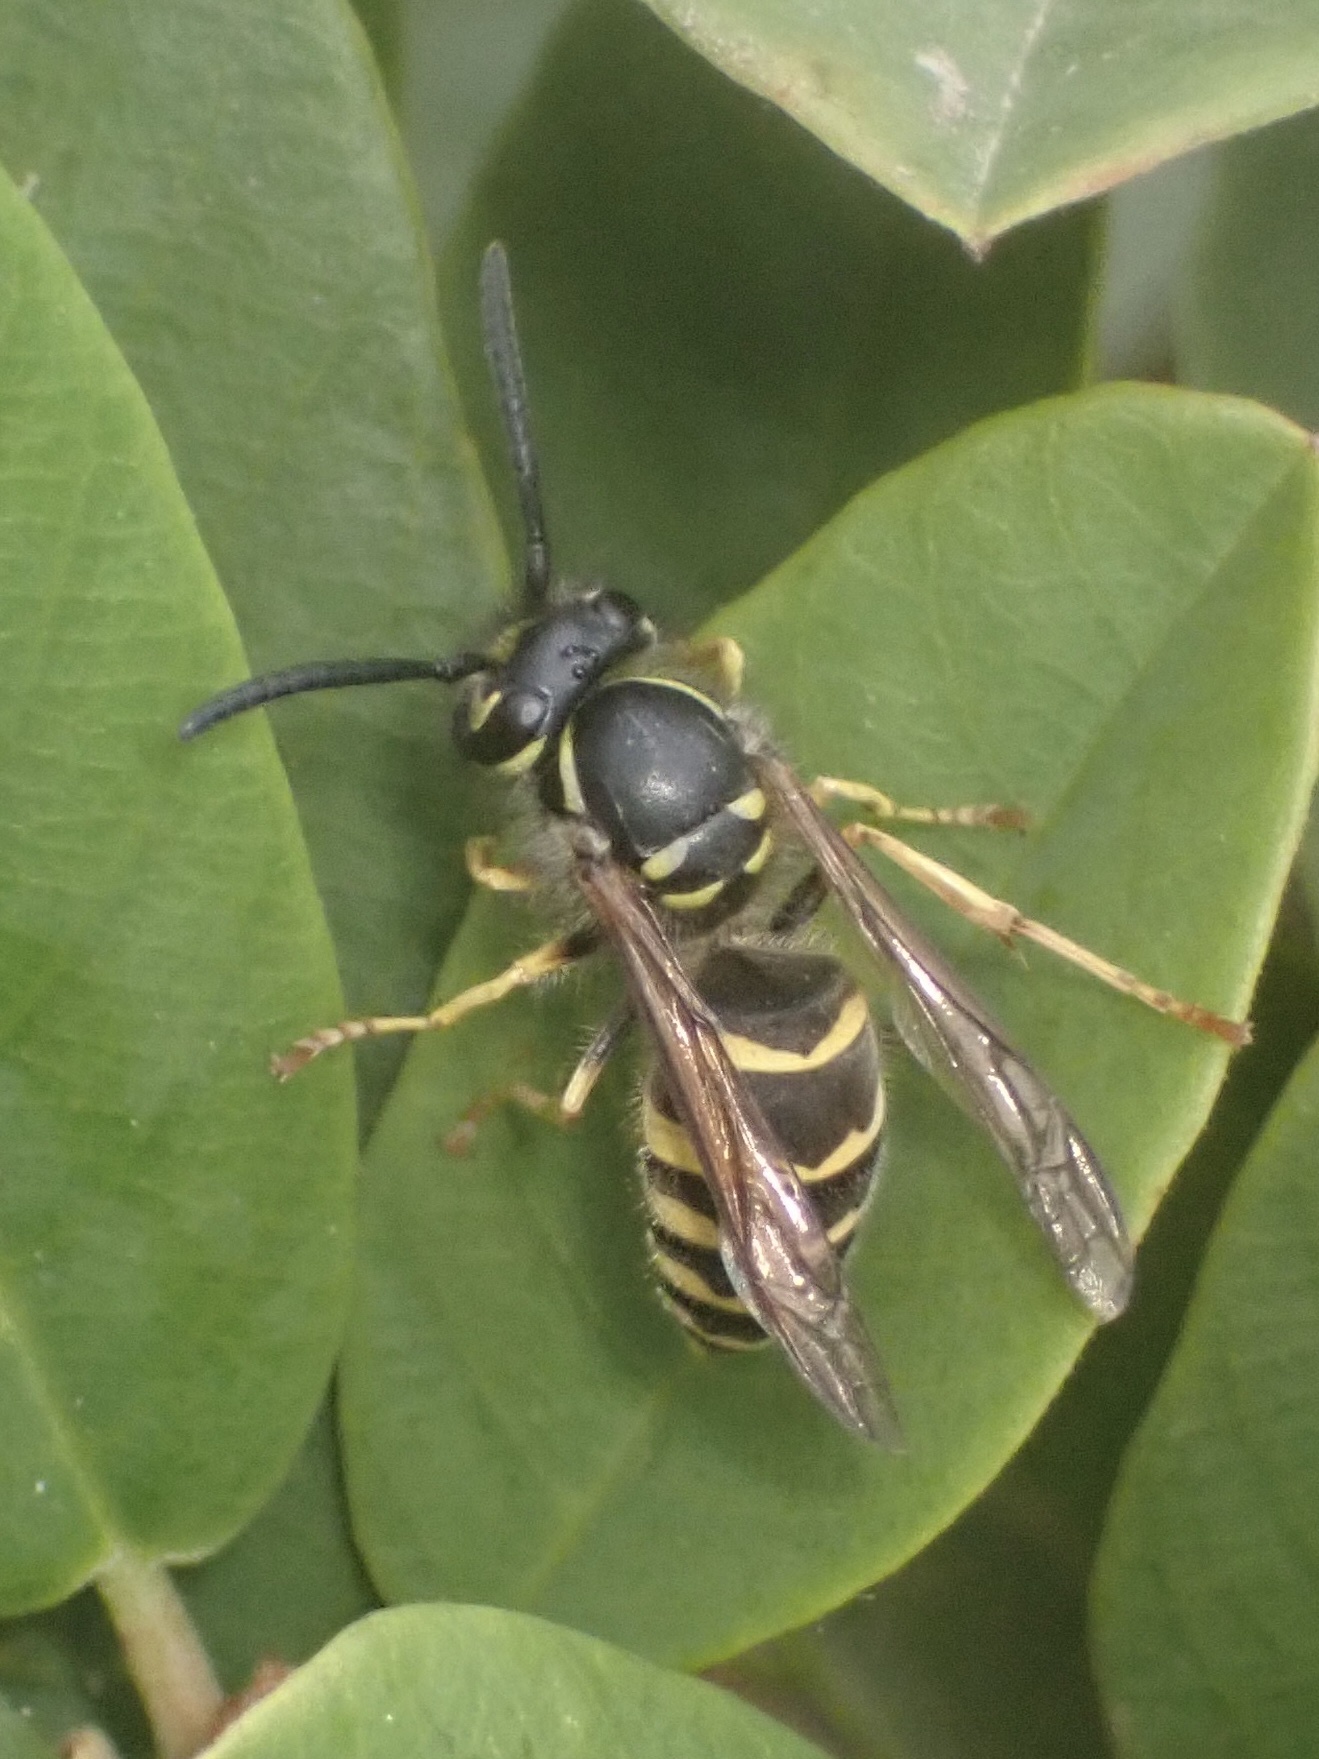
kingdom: Animalia
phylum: Arthropoda
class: Insecta
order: Hymenoptera
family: Vespidae
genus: Vespula
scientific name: Vespula alascensis
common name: Alaska yellowjacket
